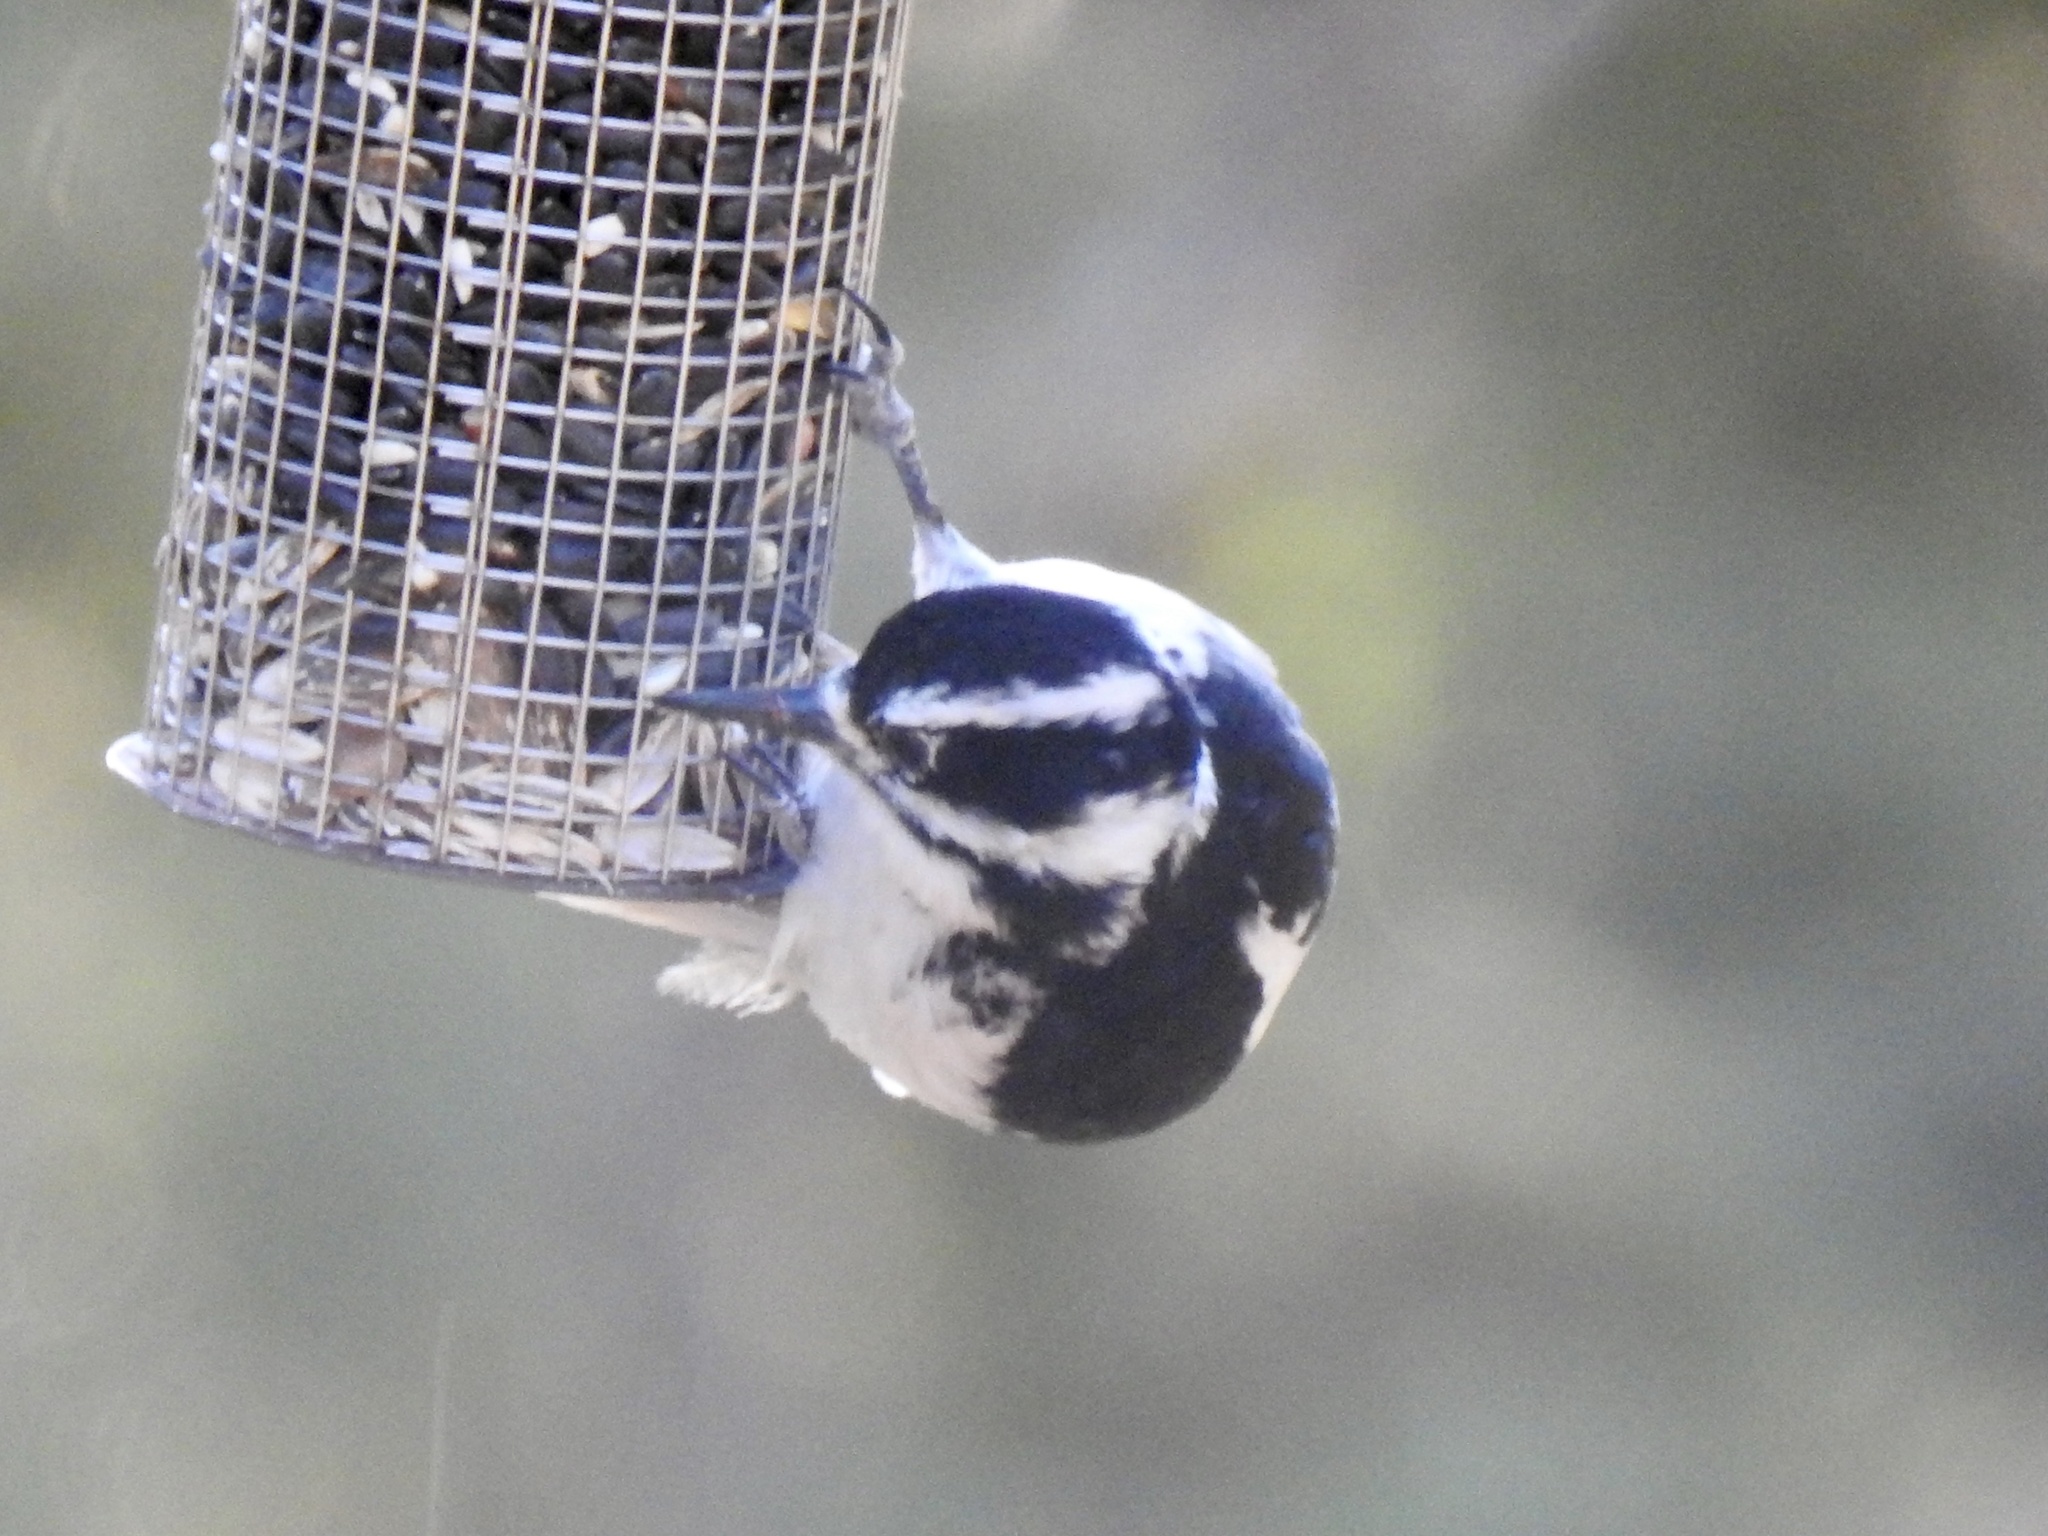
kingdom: Animalia
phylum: Chordata
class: Aves
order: Piciformes
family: Picidae
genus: Leuconotopicus
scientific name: Leuconotopicus villosus
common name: Hairy woodpecker
